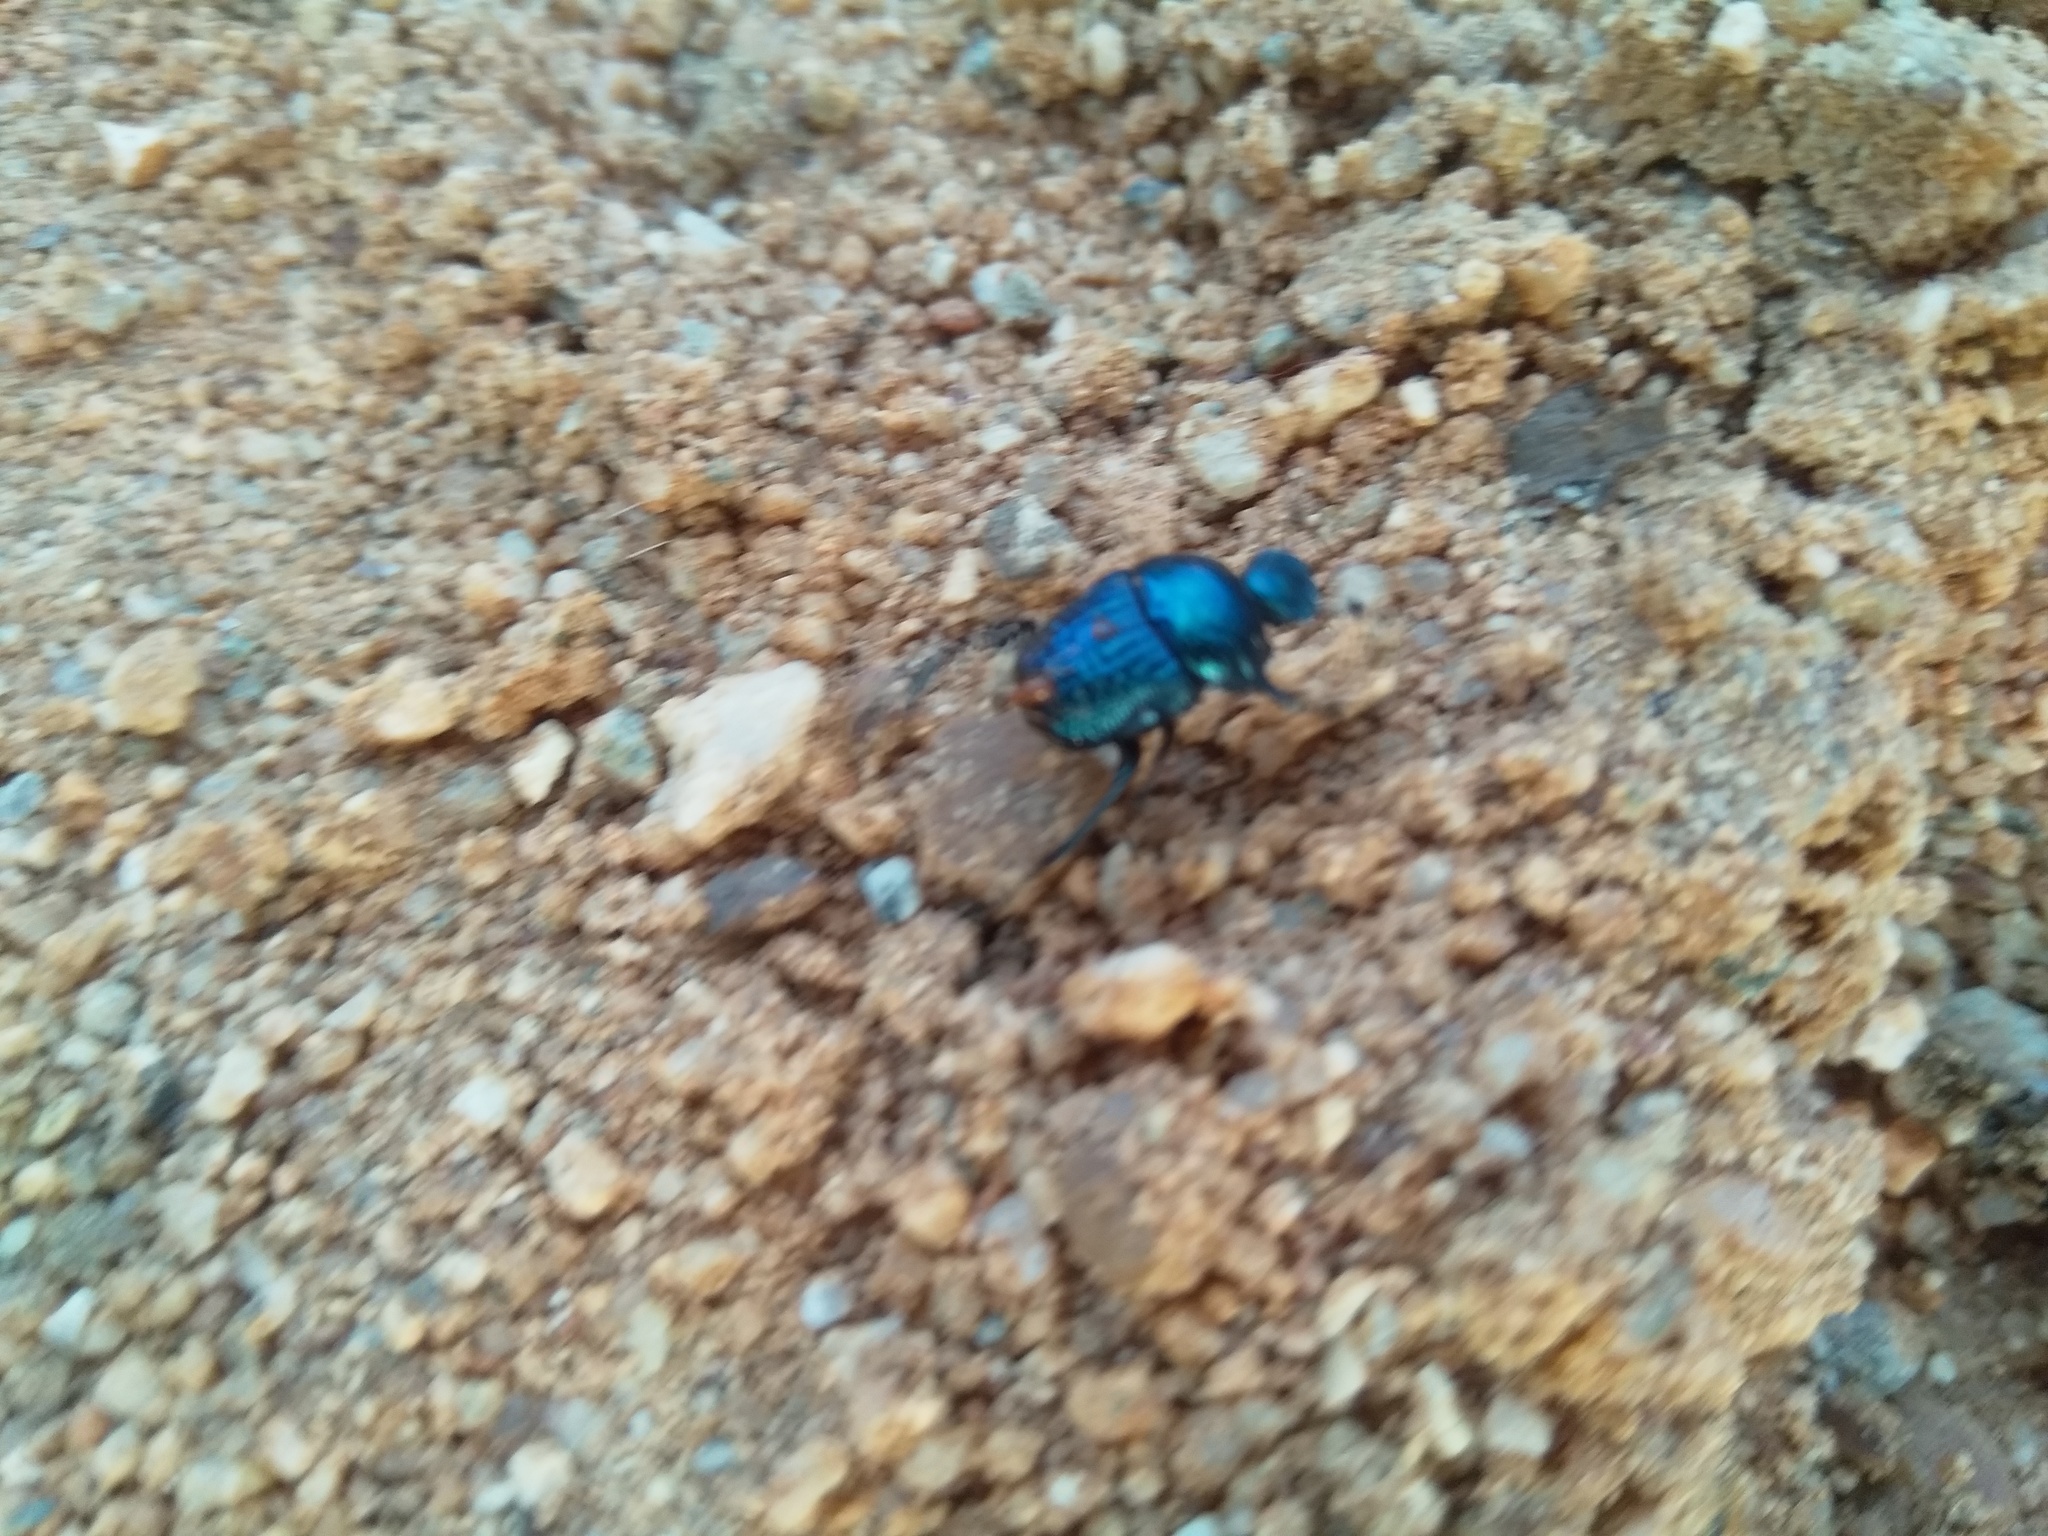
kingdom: Animalia
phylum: Arthropoda
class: Insecta
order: Coleoptera
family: Scarabaeidae
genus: Gymnopleurus
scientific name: Gymnopleurus cyaneus
